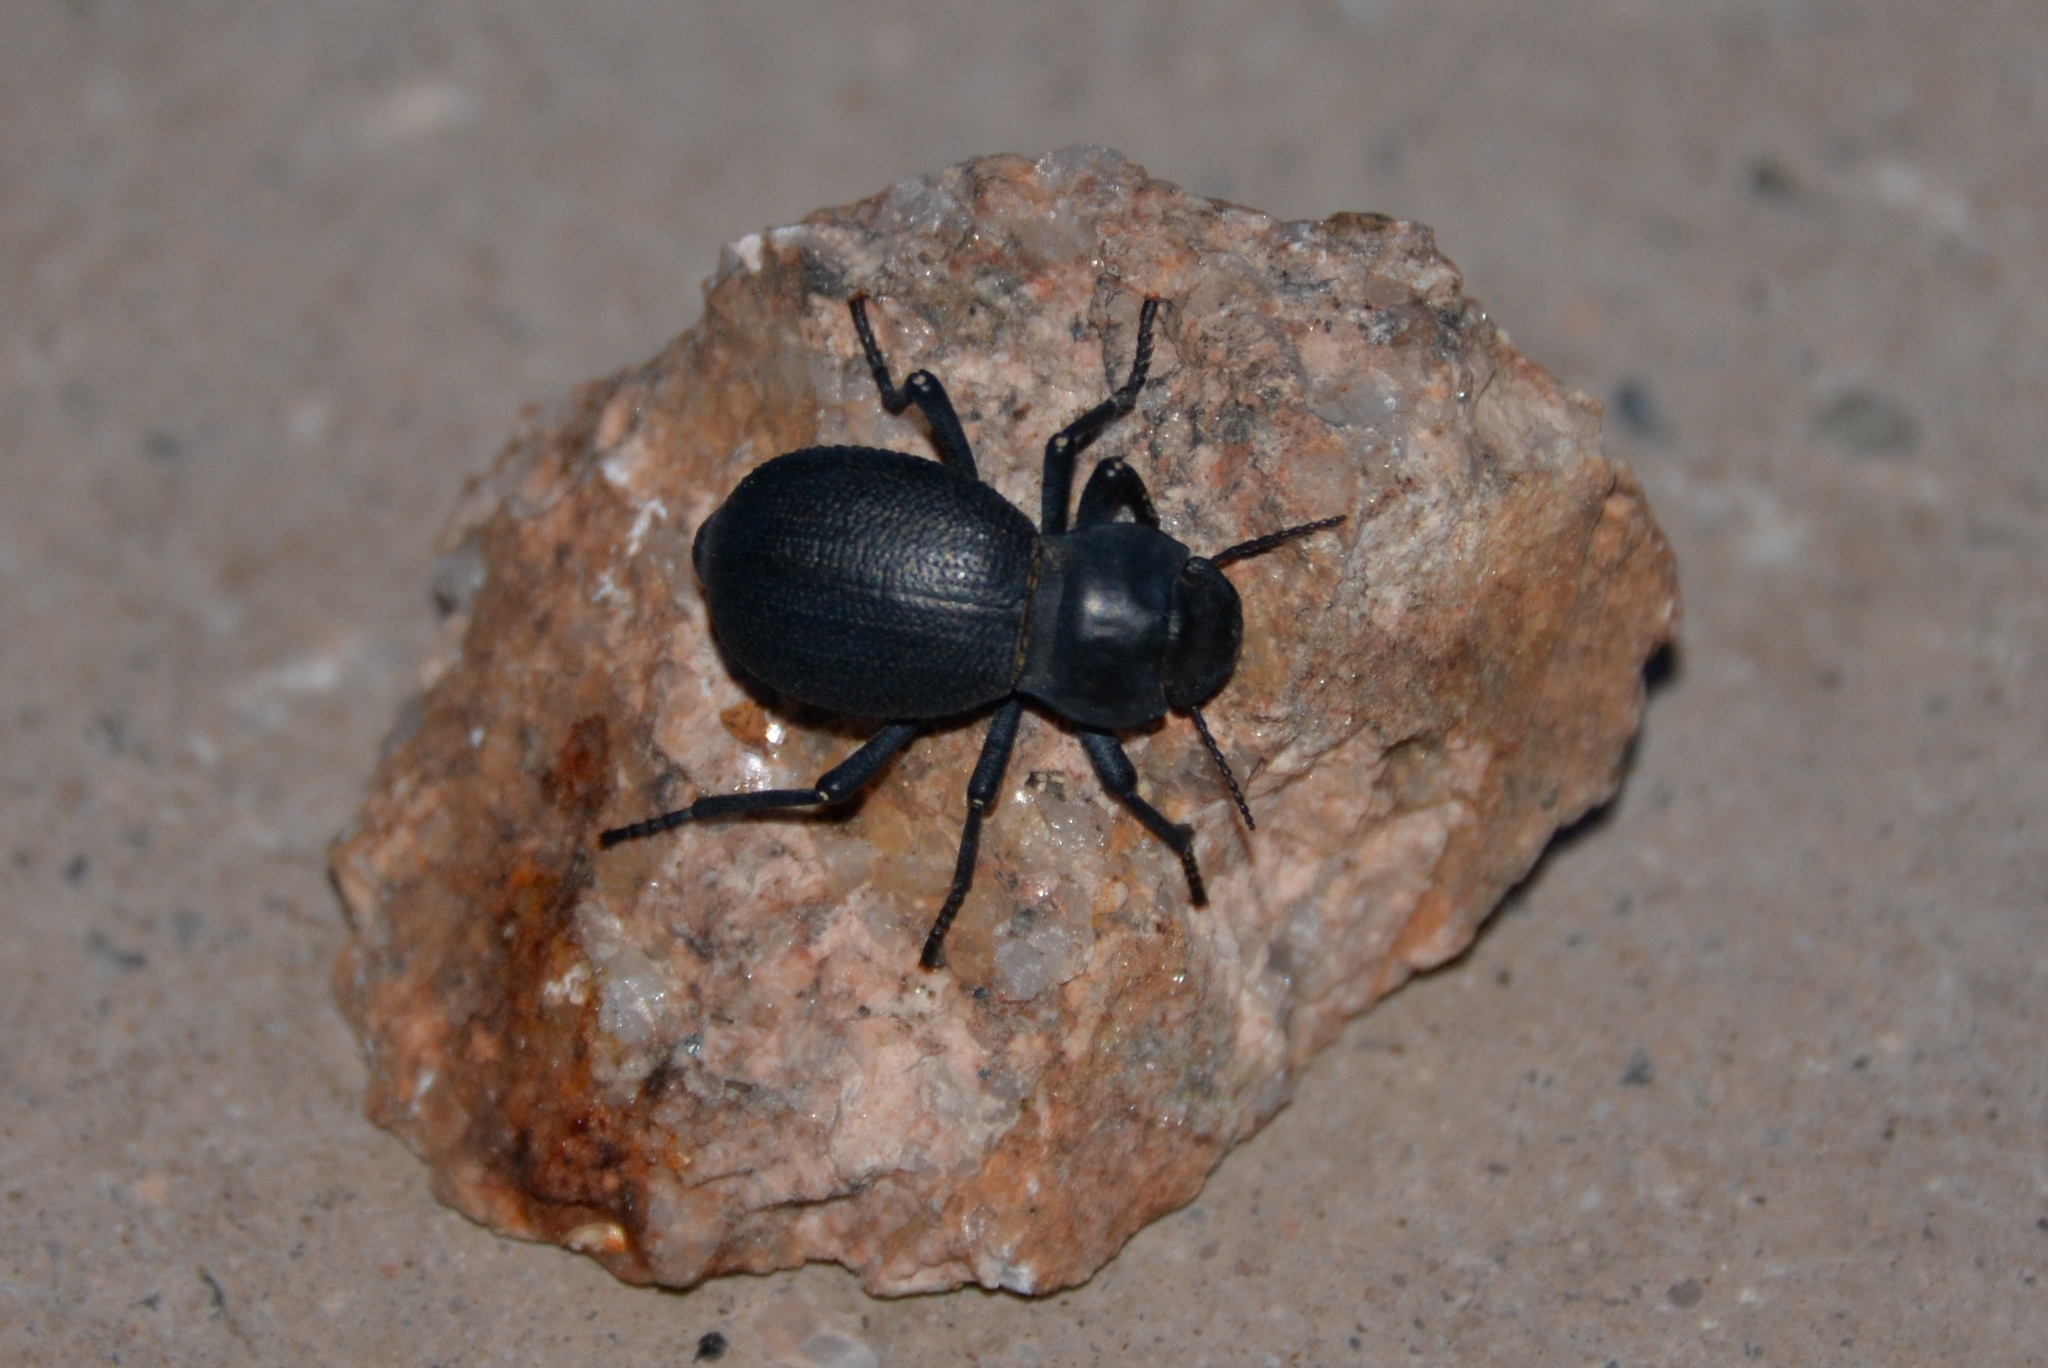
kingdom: Animalia
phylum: Arthropoda
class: Insecta
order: Coleoptera
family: Tenebrionidae
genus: Schizillus
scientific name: Schizillus laticeps
